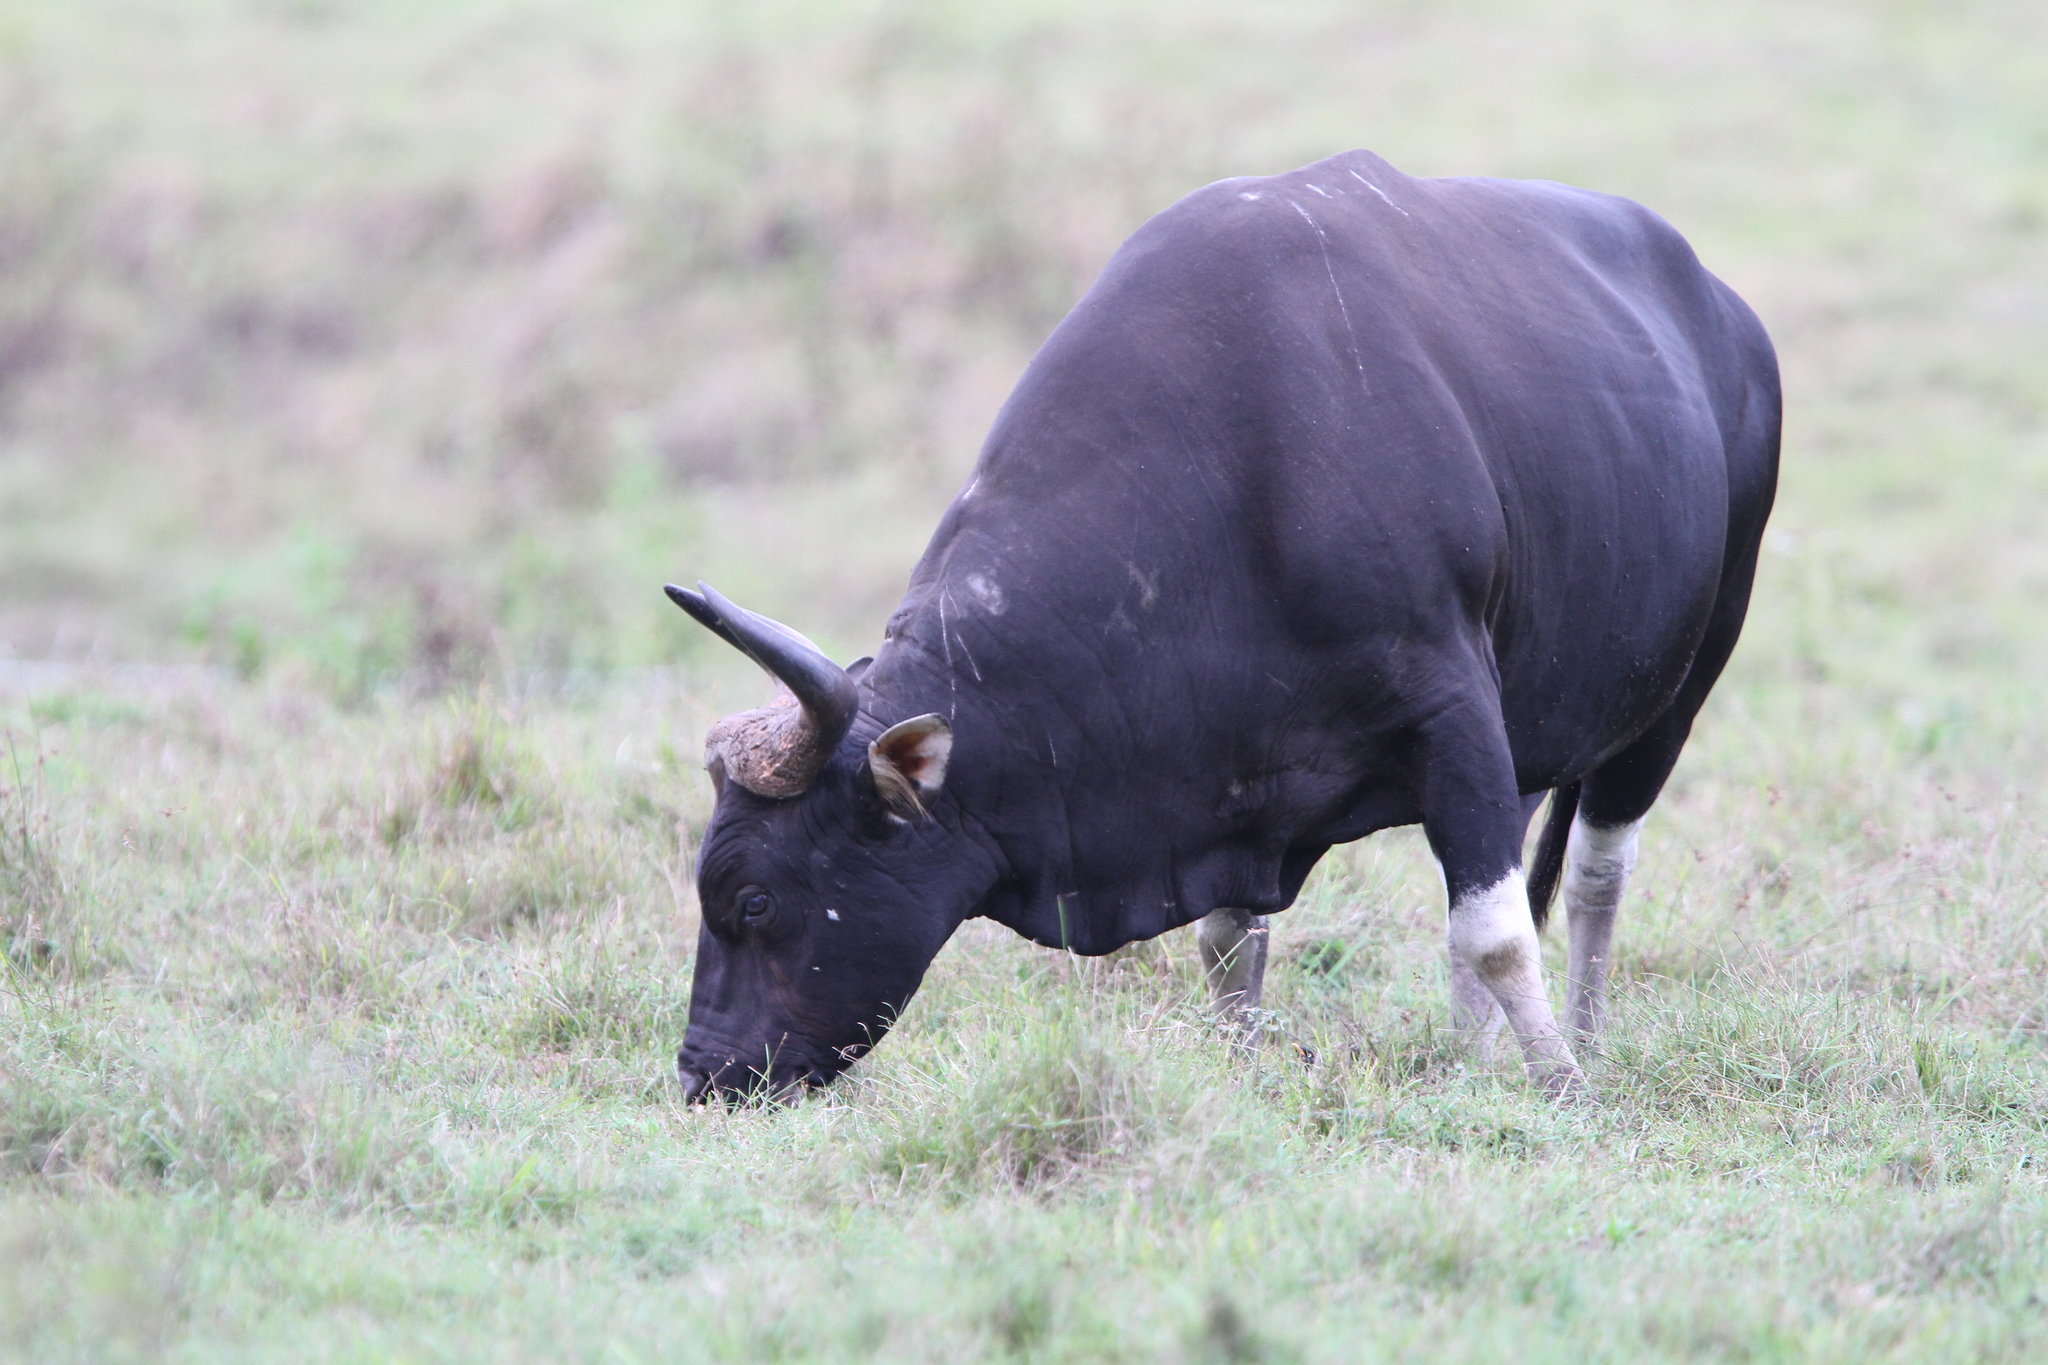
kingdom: Animalia
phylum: Chordata
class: Mammalia
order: Artiodactyla
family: Bovidae
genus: Bos
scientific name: Bos javanicus
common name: Banteng
